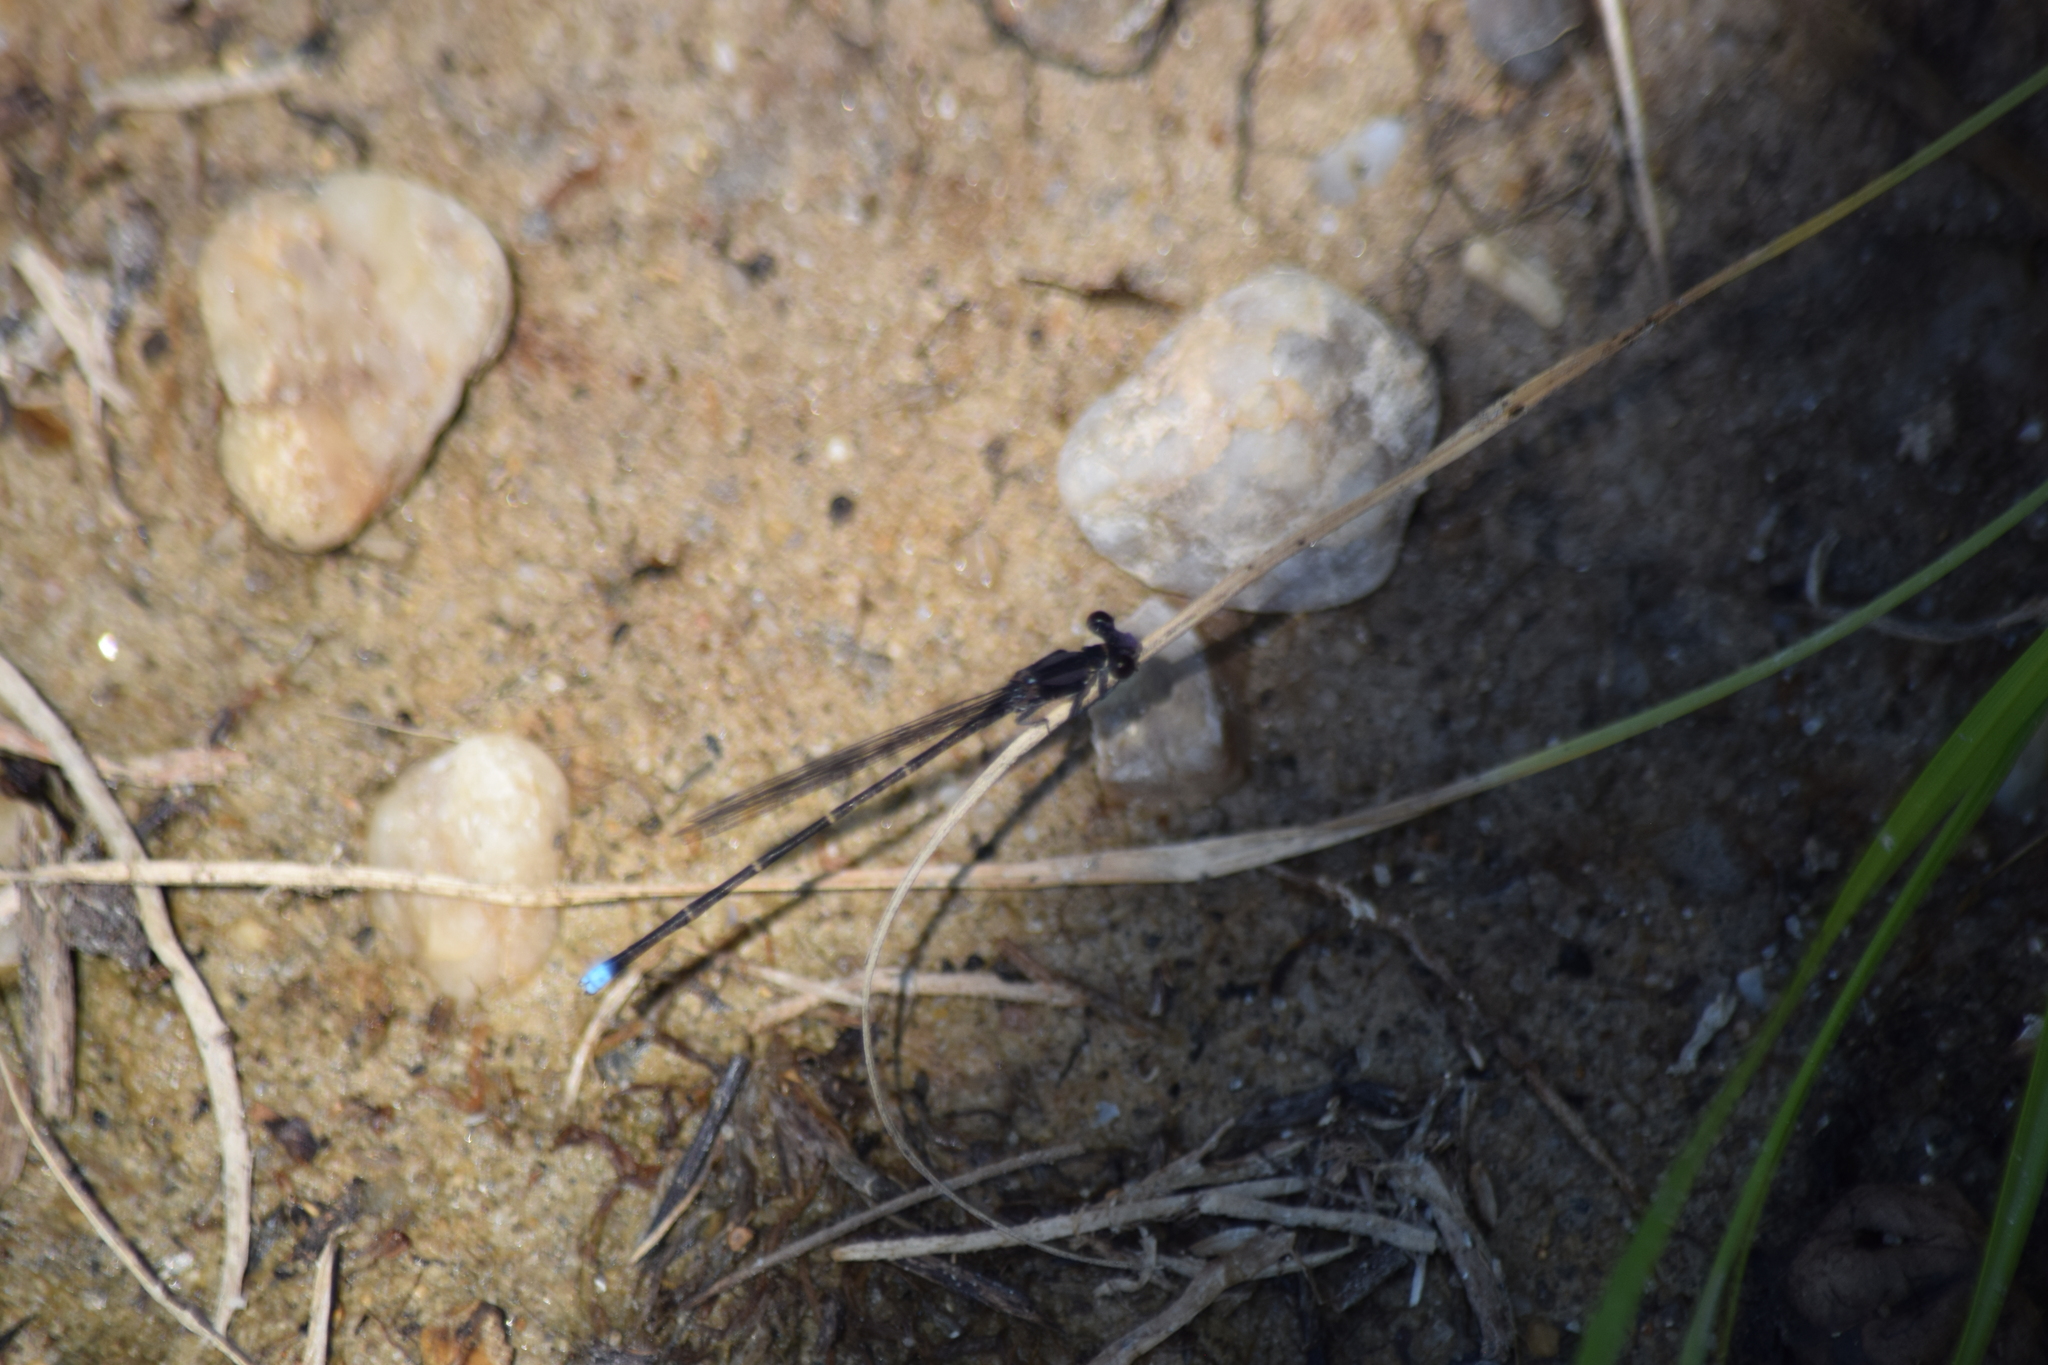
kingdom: Animalia
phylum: Arthropoda
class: Insecta
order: Odonata
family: Coenagrionidae
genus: Argia
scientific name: Argia tibialis
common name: Blue-tipped dancer
